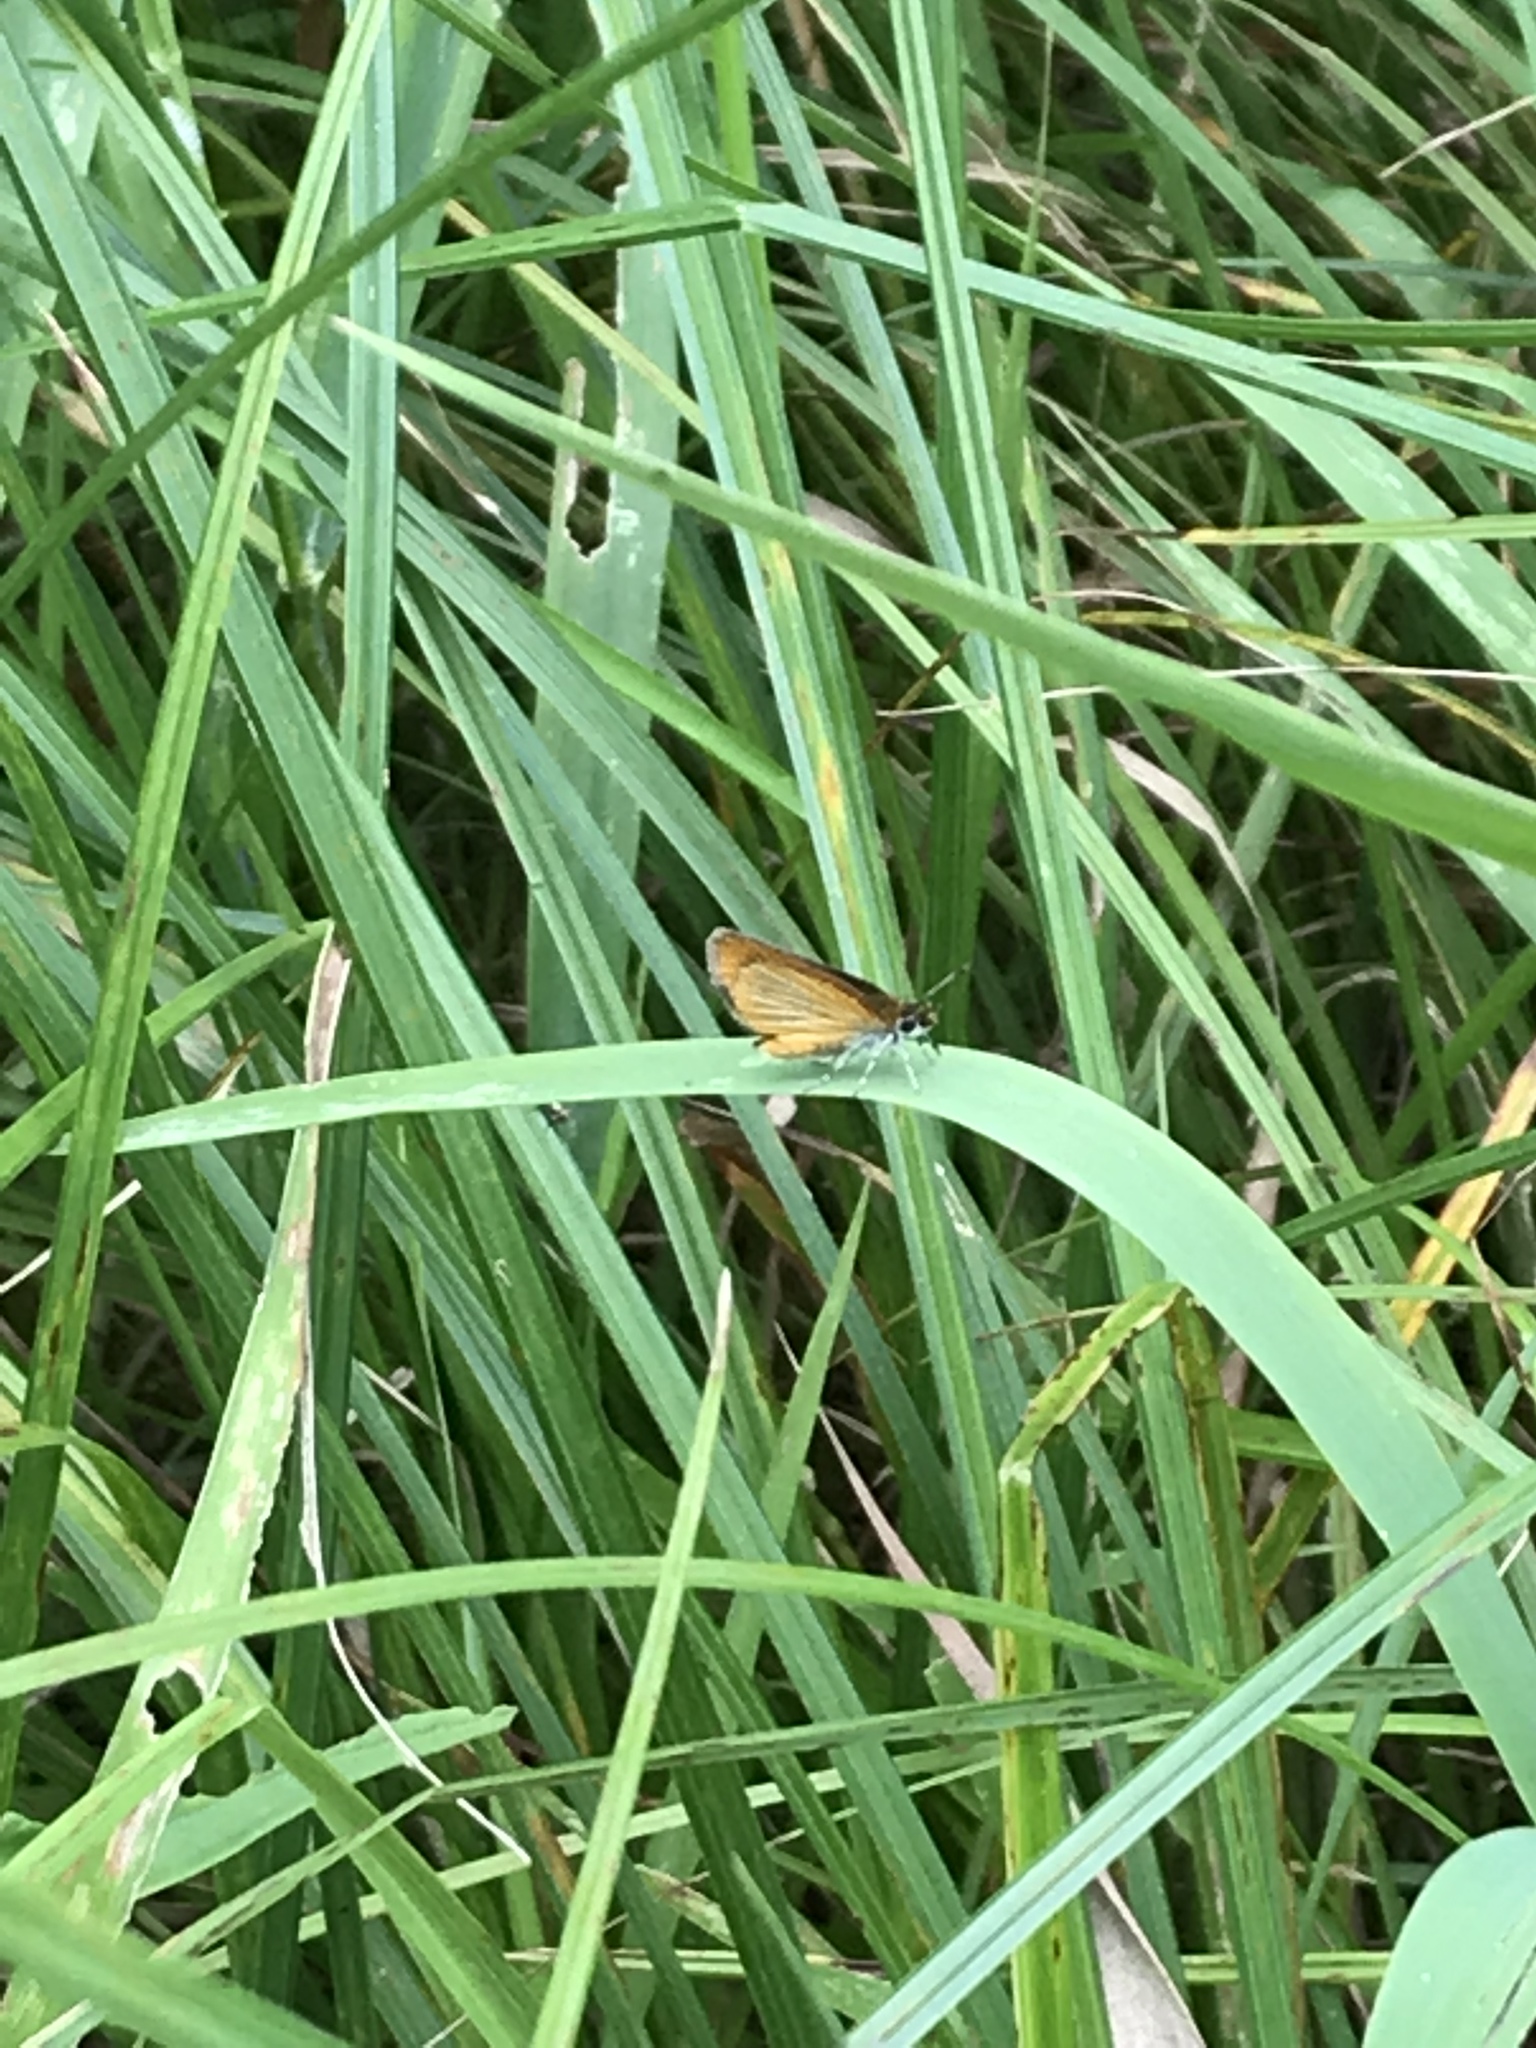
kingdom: Animalia
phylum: Arthropoda
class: Insecta
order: Lepidoptera
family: Hesperiidae
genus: Ancyloxypha
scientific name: Ancyloxypha numitor
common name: Least skipper
